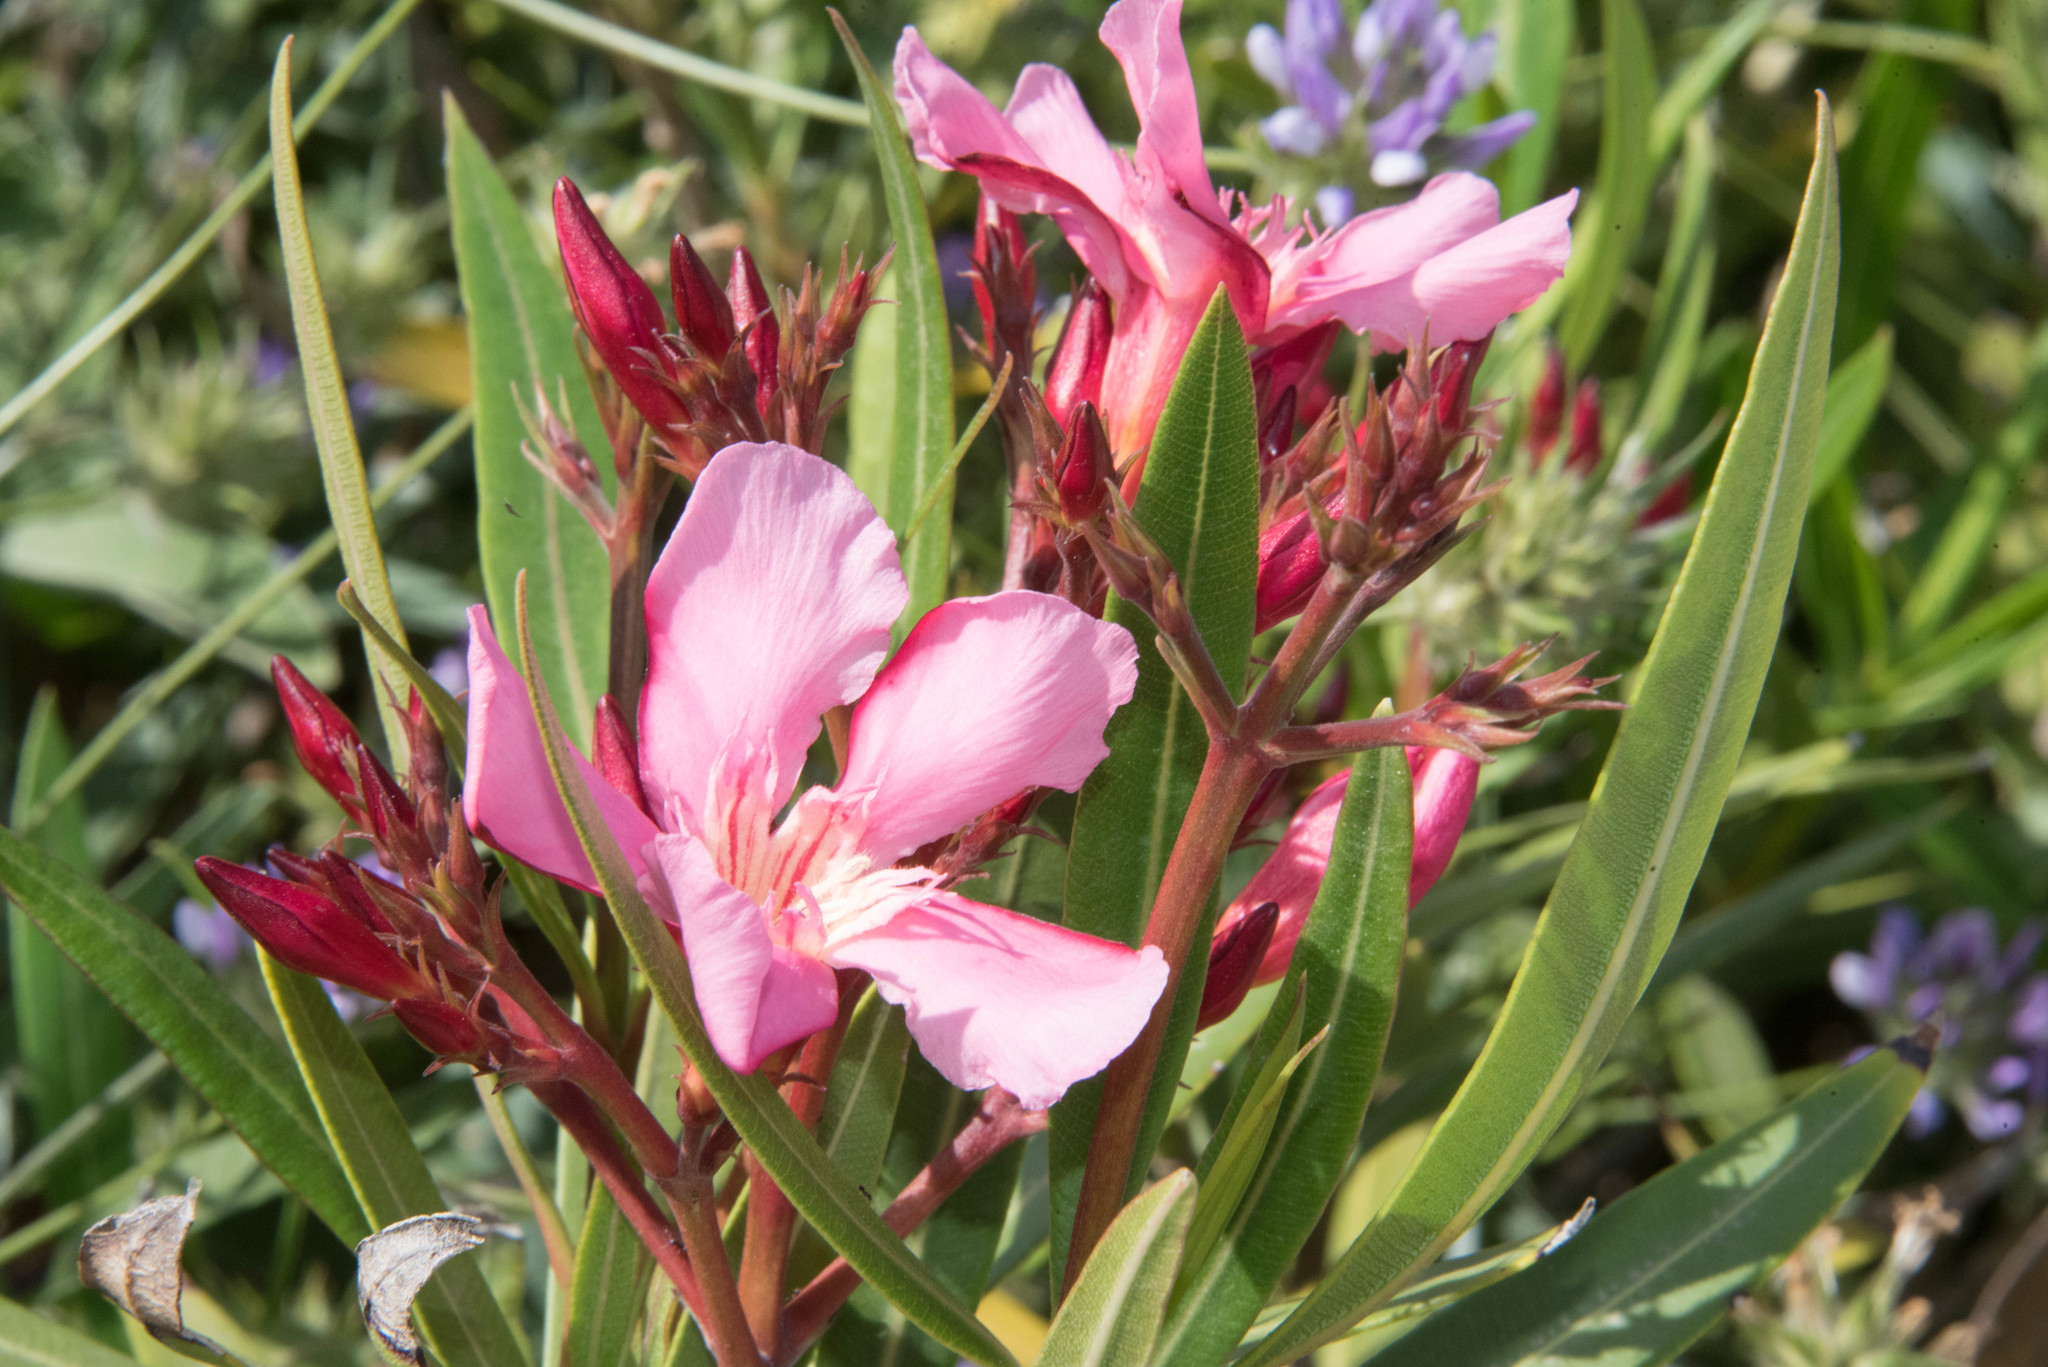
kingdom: Plantae
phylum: Tracheophyta
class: Magnoliopsida
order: Gentianales
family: Apocynaceae
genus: Nerium
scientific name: Nerium oleander
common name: Oleander
